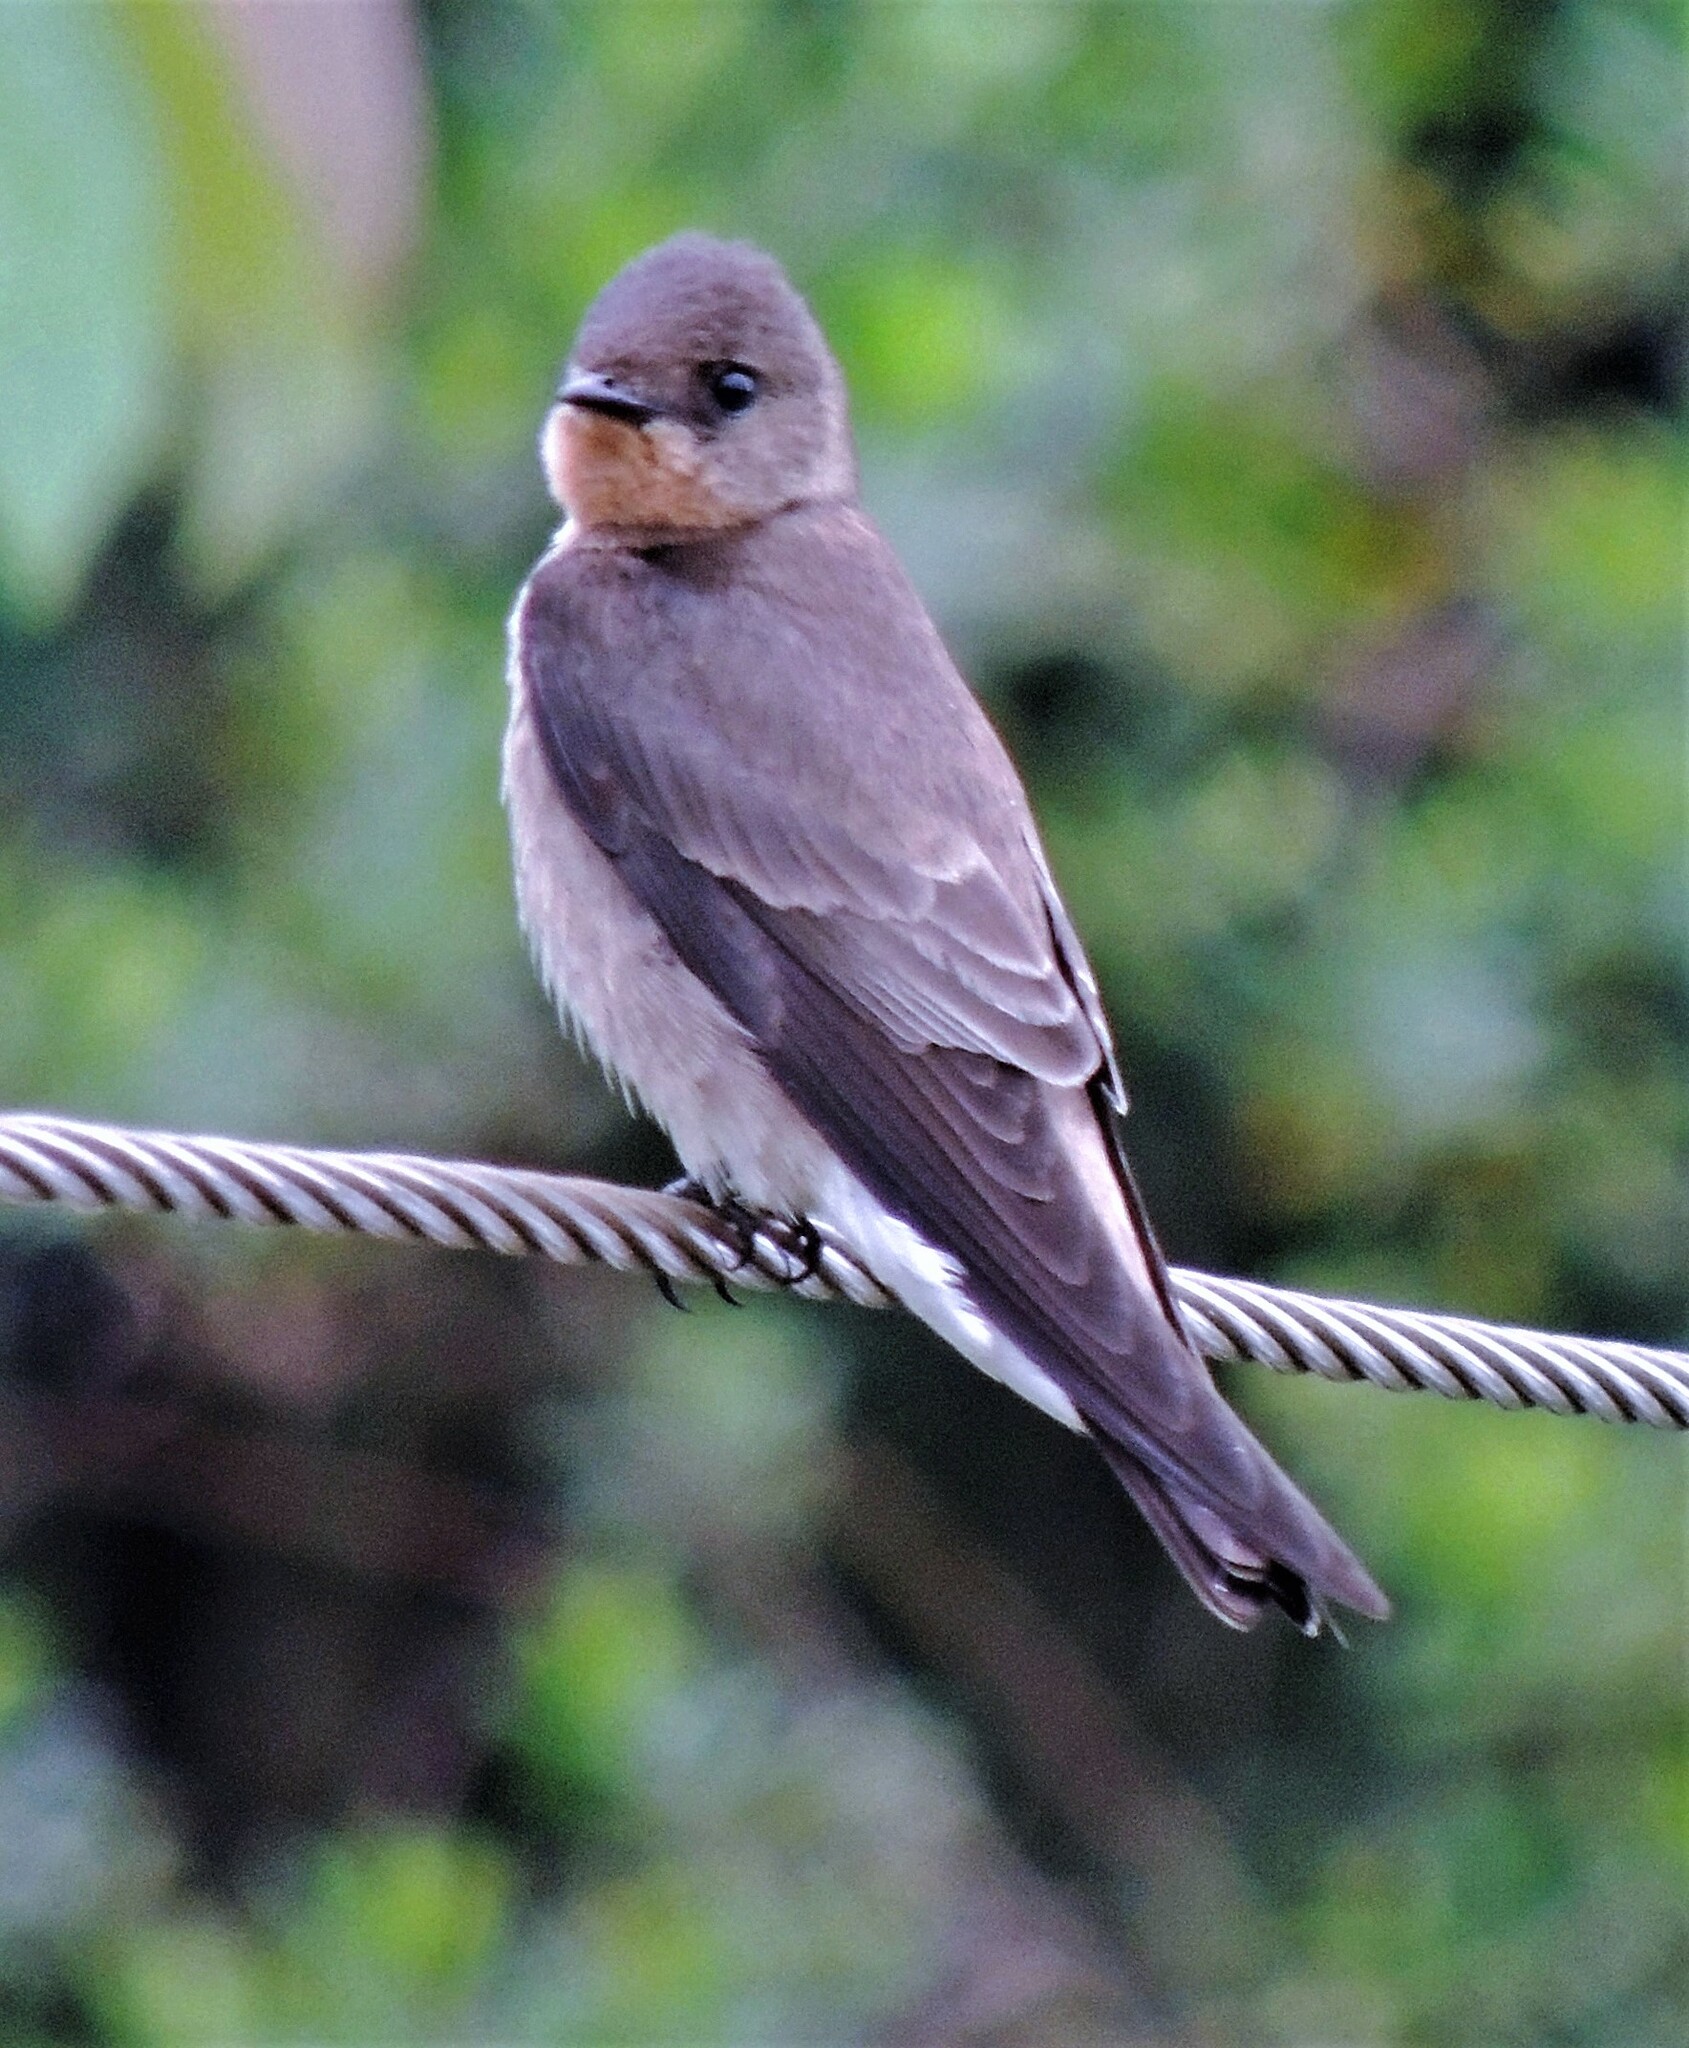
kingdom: Animalia
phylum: Chordata
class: Aves
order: Passeriformes
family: Hirundinidae
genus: Stelgidopteryx
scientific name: Stelgidopteryx ruficollis
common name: Southern rough-winged swallow
